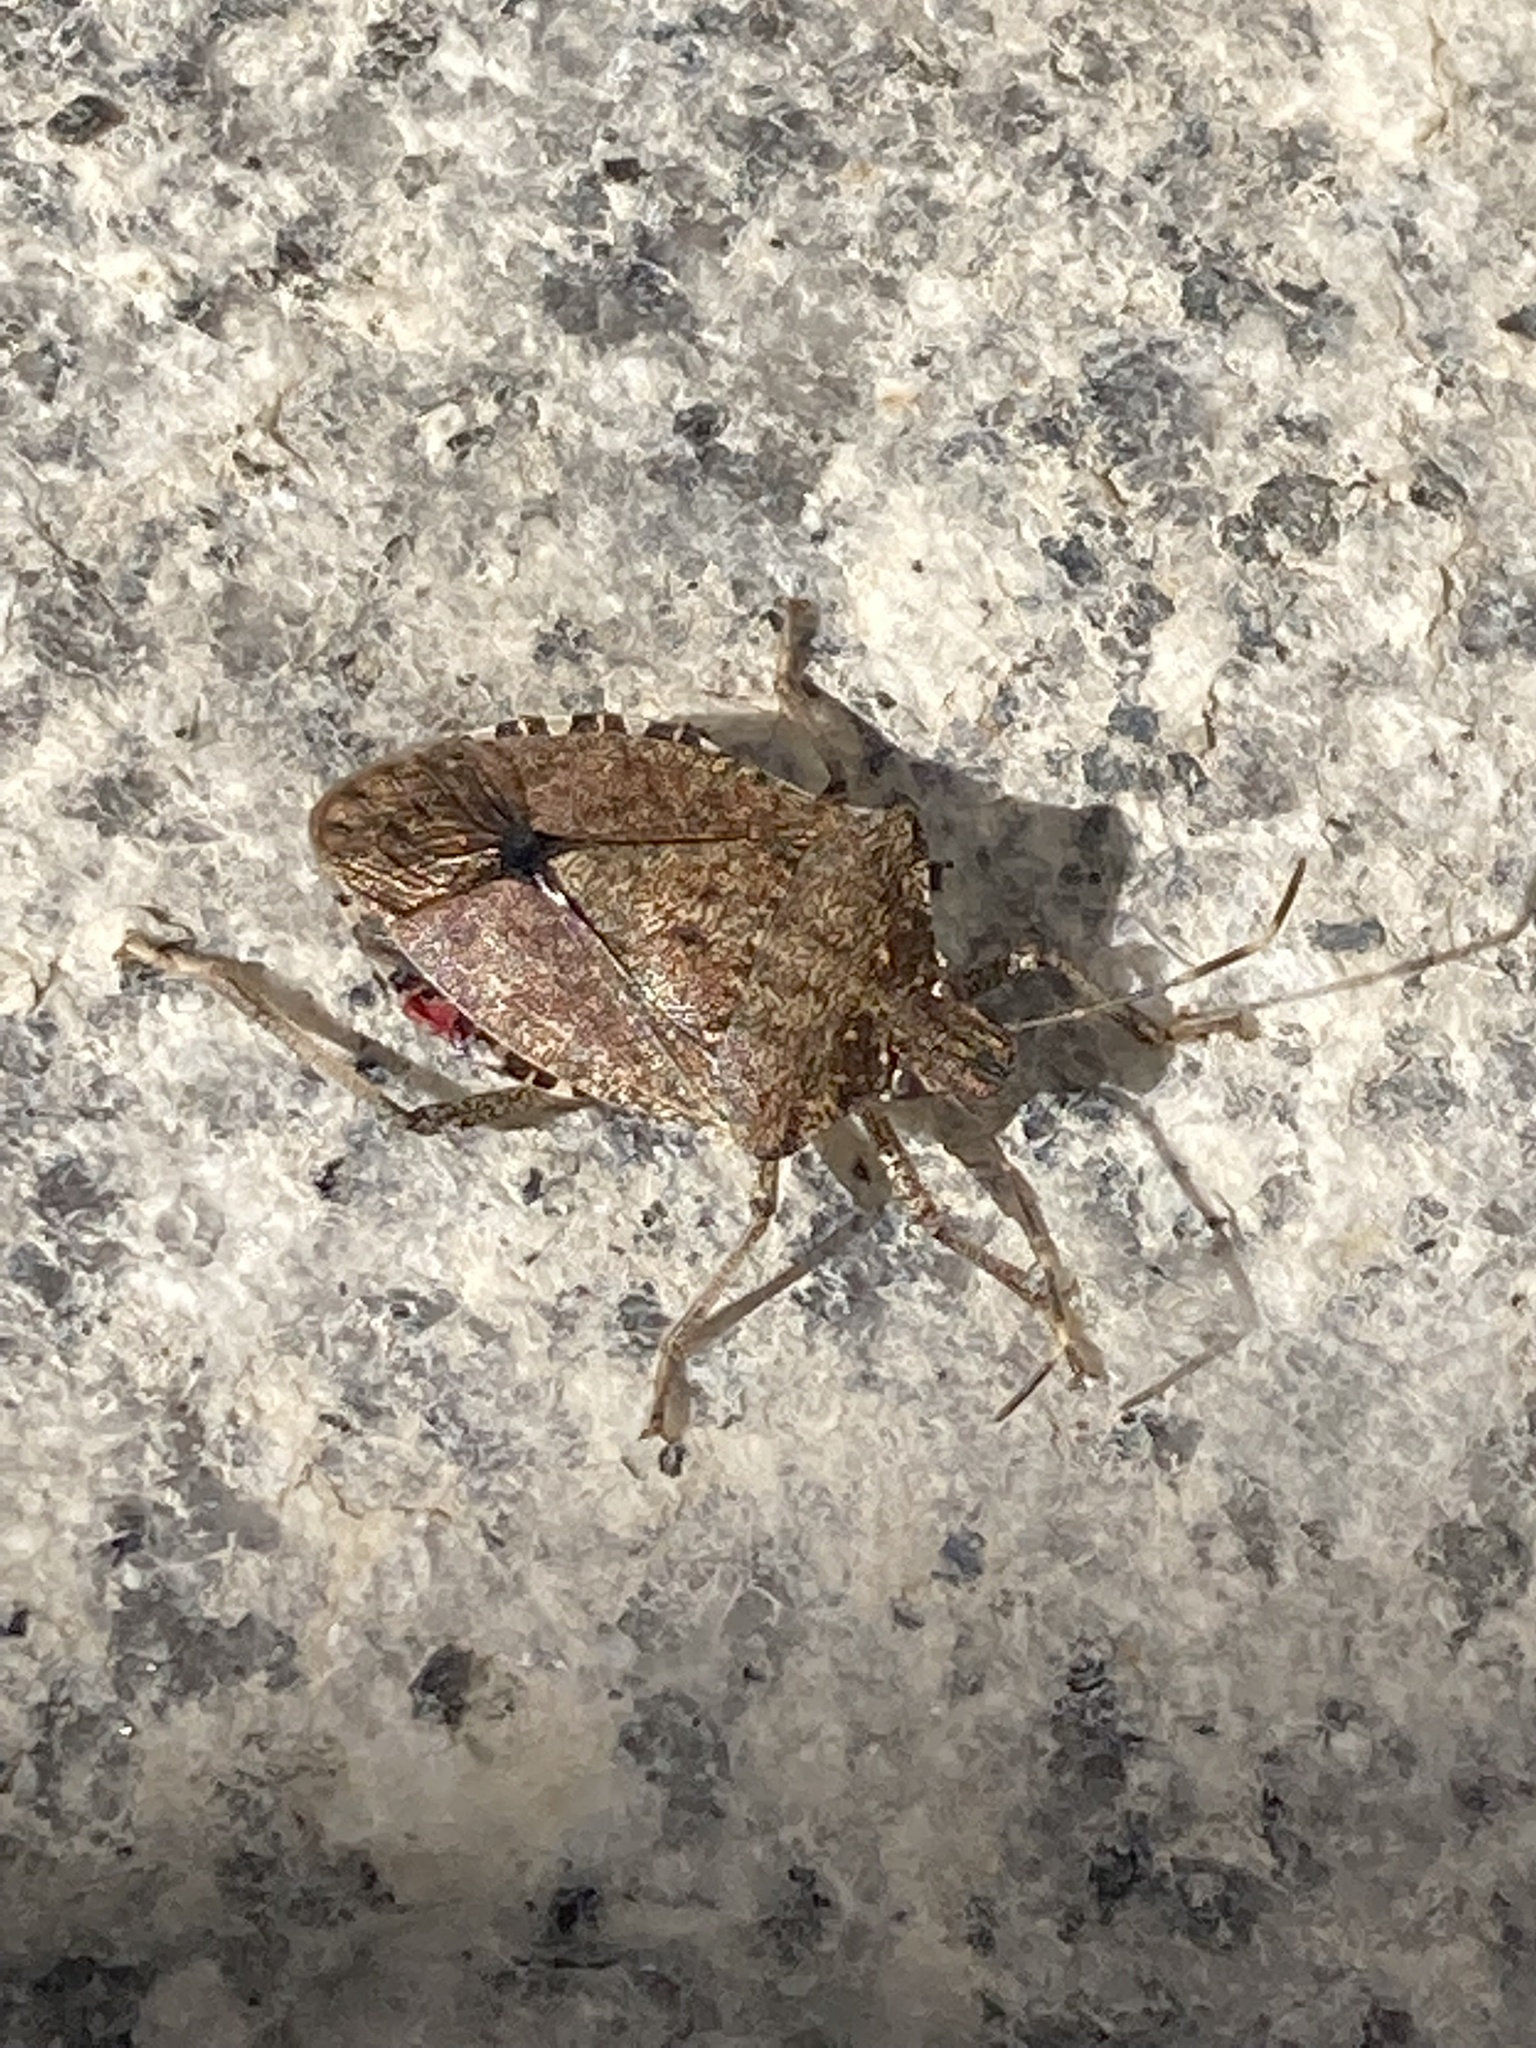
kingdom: Animalia
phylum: Arthropoda
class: Insecta
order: Hemiptera
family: Pentatomidae
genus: Halyomorpha
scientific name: Halyomorpha halys
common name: Brown marmorated stink bug
